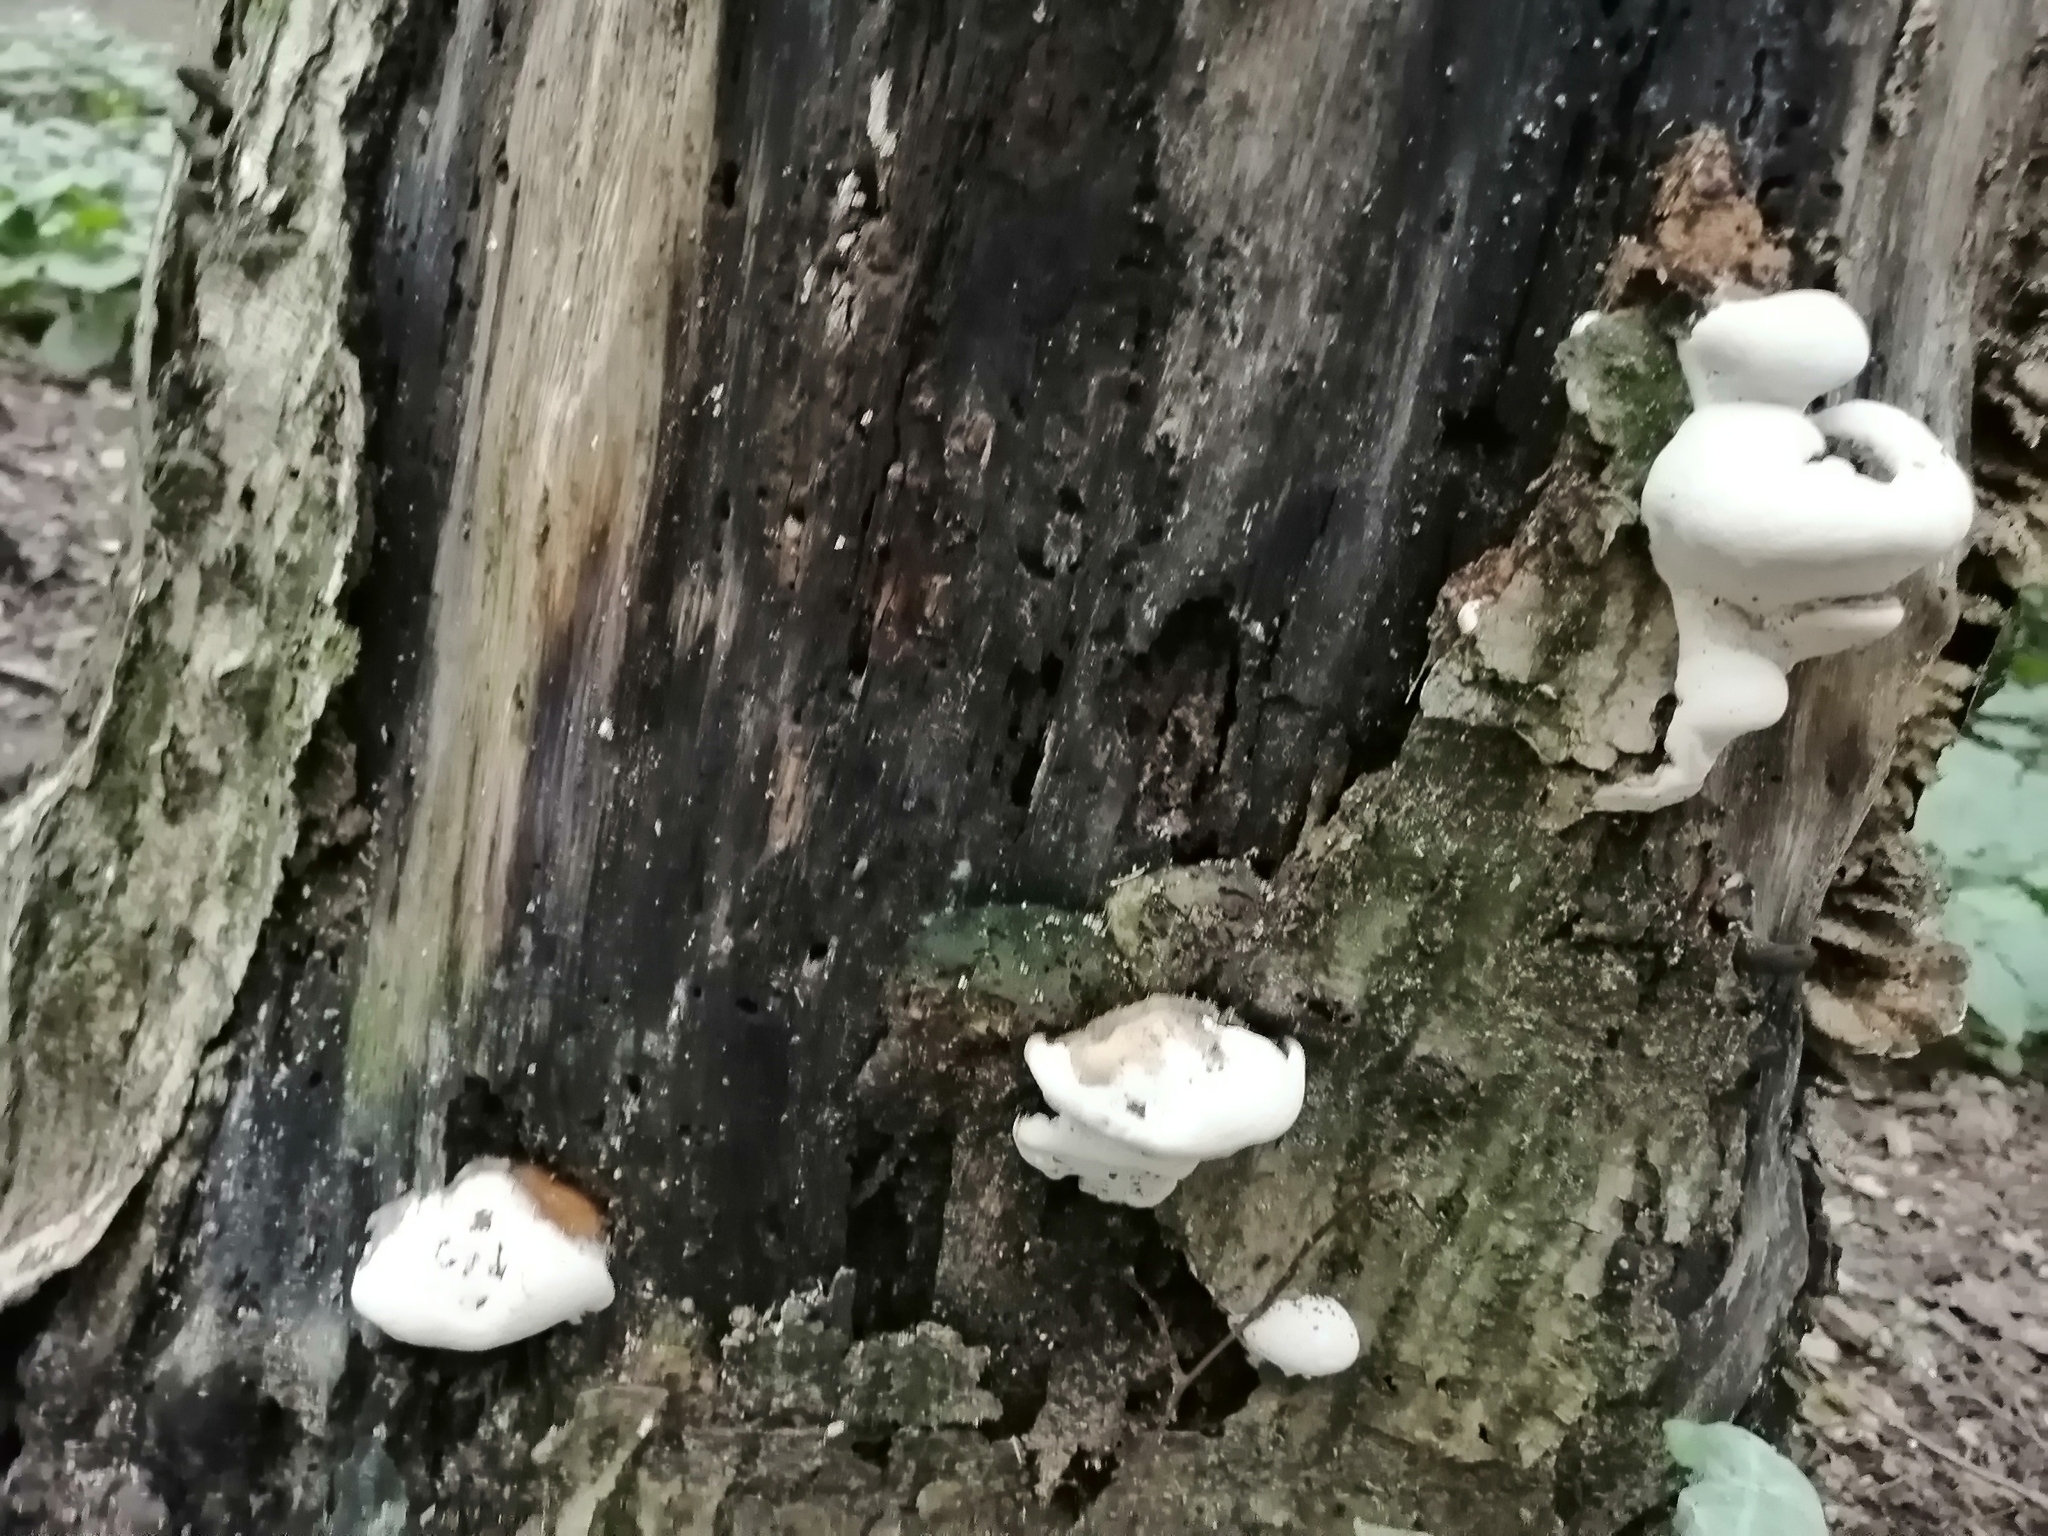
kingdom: Fungi
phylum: Basidiomycota
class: Agaricomycetes
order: Polyporales
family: Polyporaceae
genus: Ganoderma
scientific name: Ganoderma applanatum
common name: Artist's bracket
